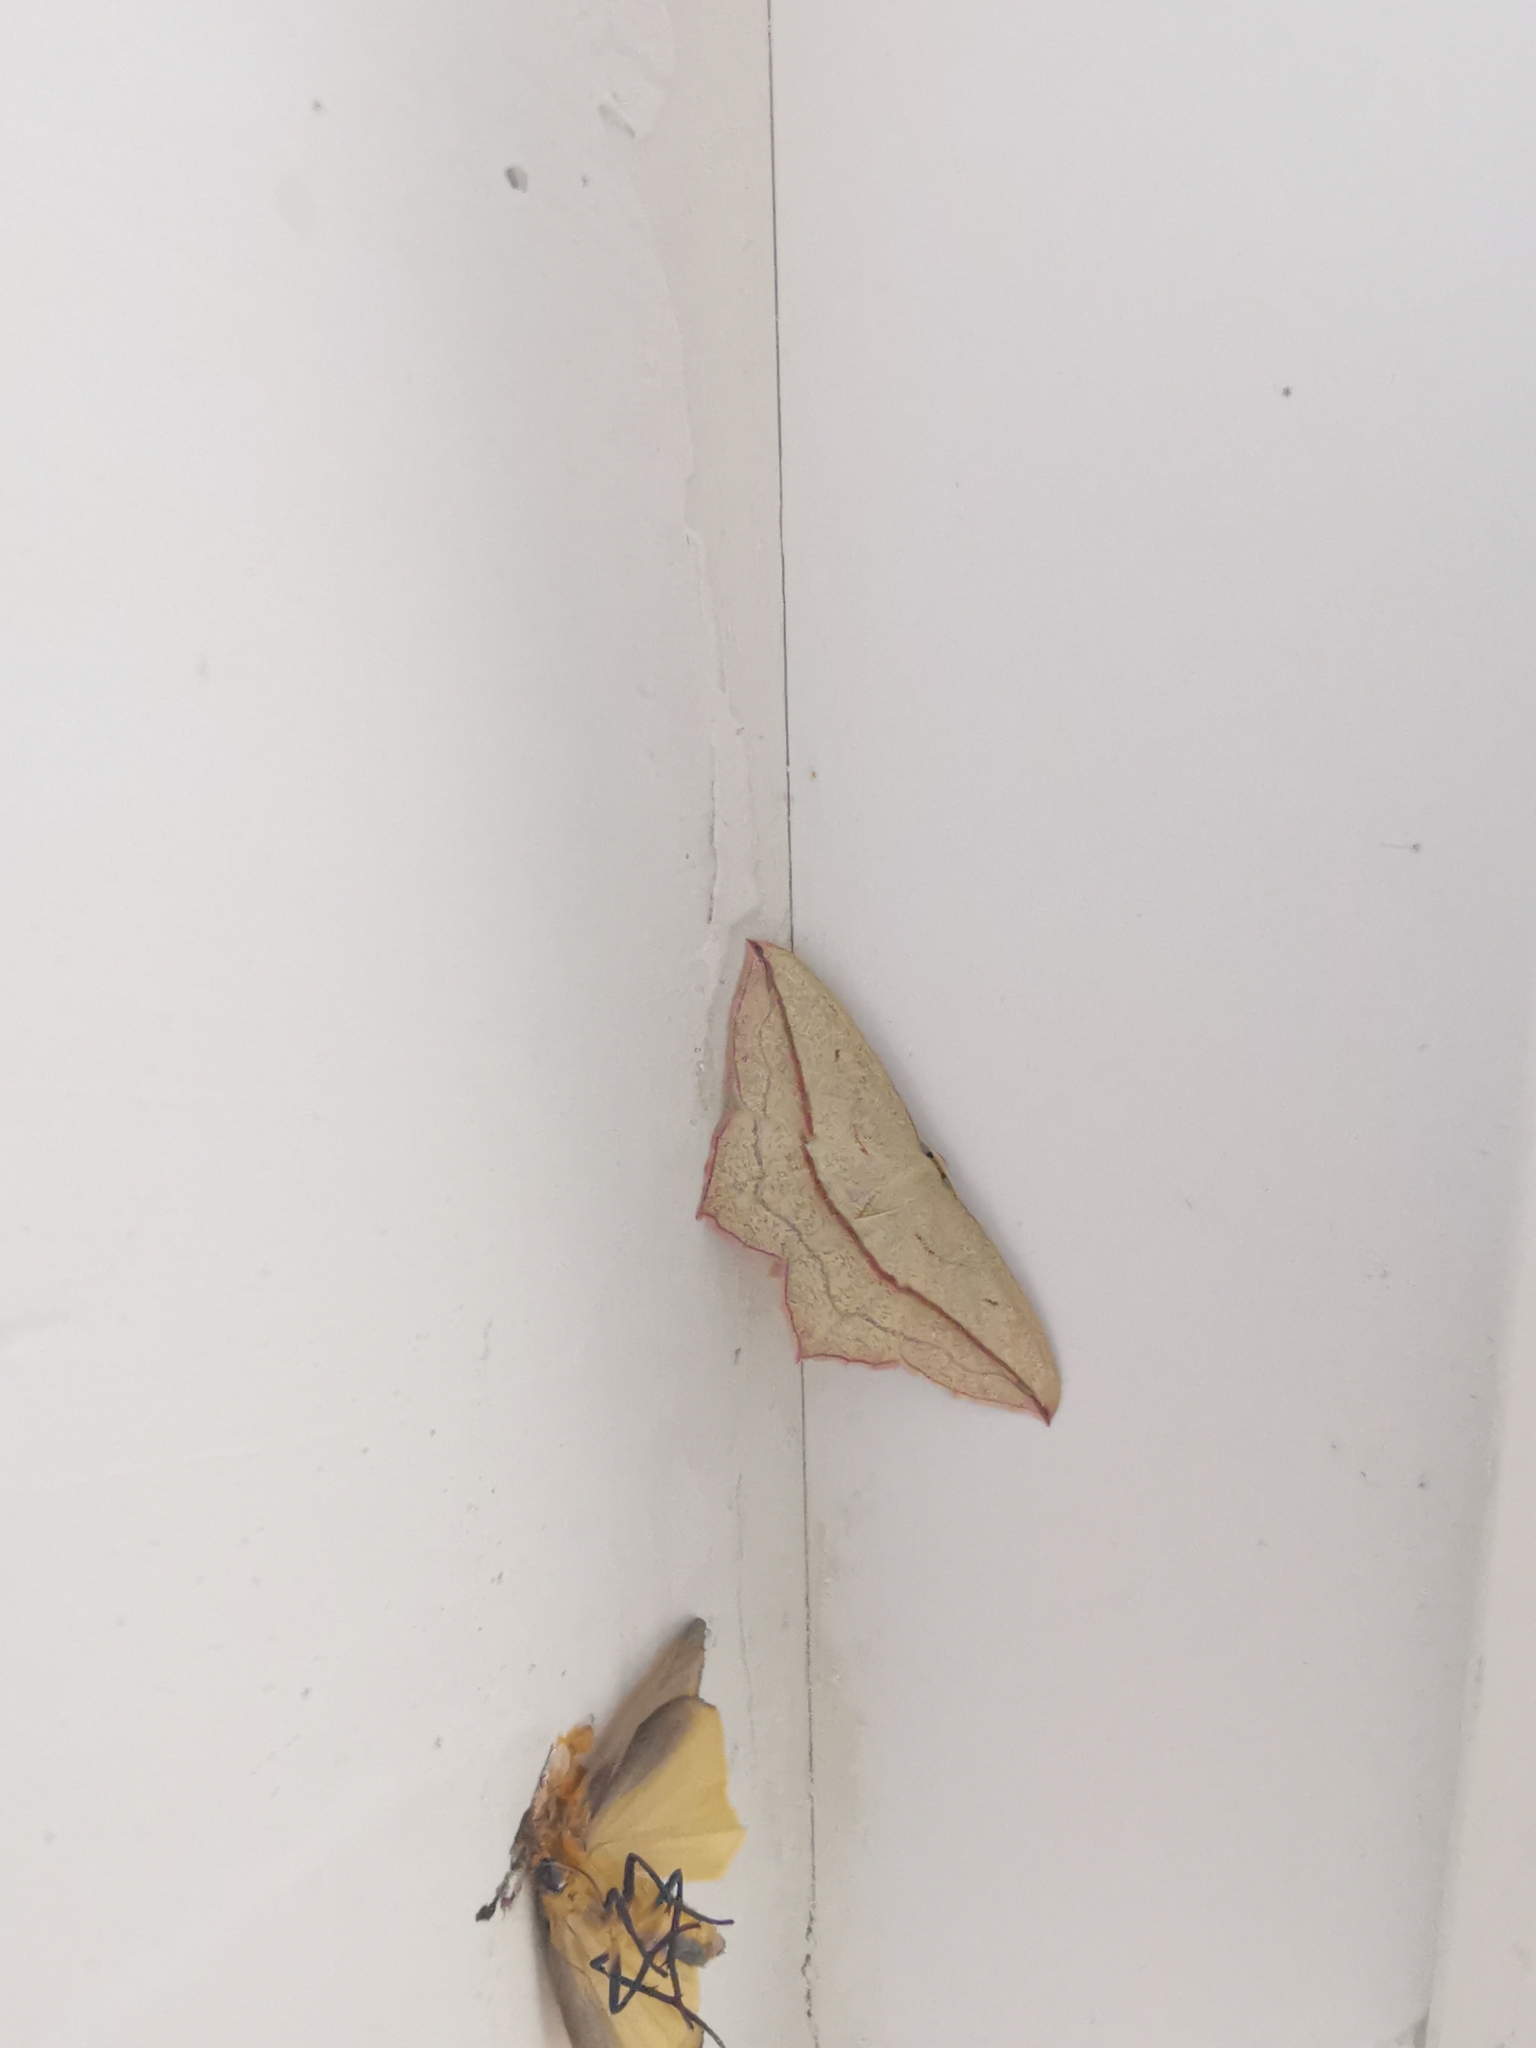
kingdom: Animalia
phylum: Arthropoda
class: Insecta
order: Lepidoptera
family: Geometridae
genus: Timandra
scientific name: Timandra comae
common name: Blood-vein
